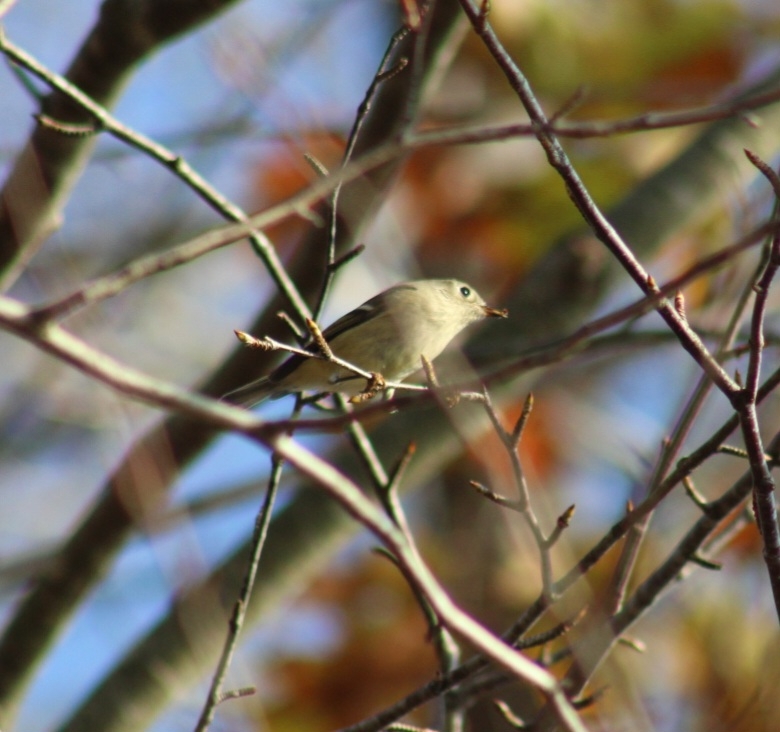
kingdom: Animalia
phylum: Chordata
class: Aves
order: Passeriformes
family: Regulidae
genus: Regulus
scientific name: Regulus calendula
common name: Ruby-crowned kinglet
